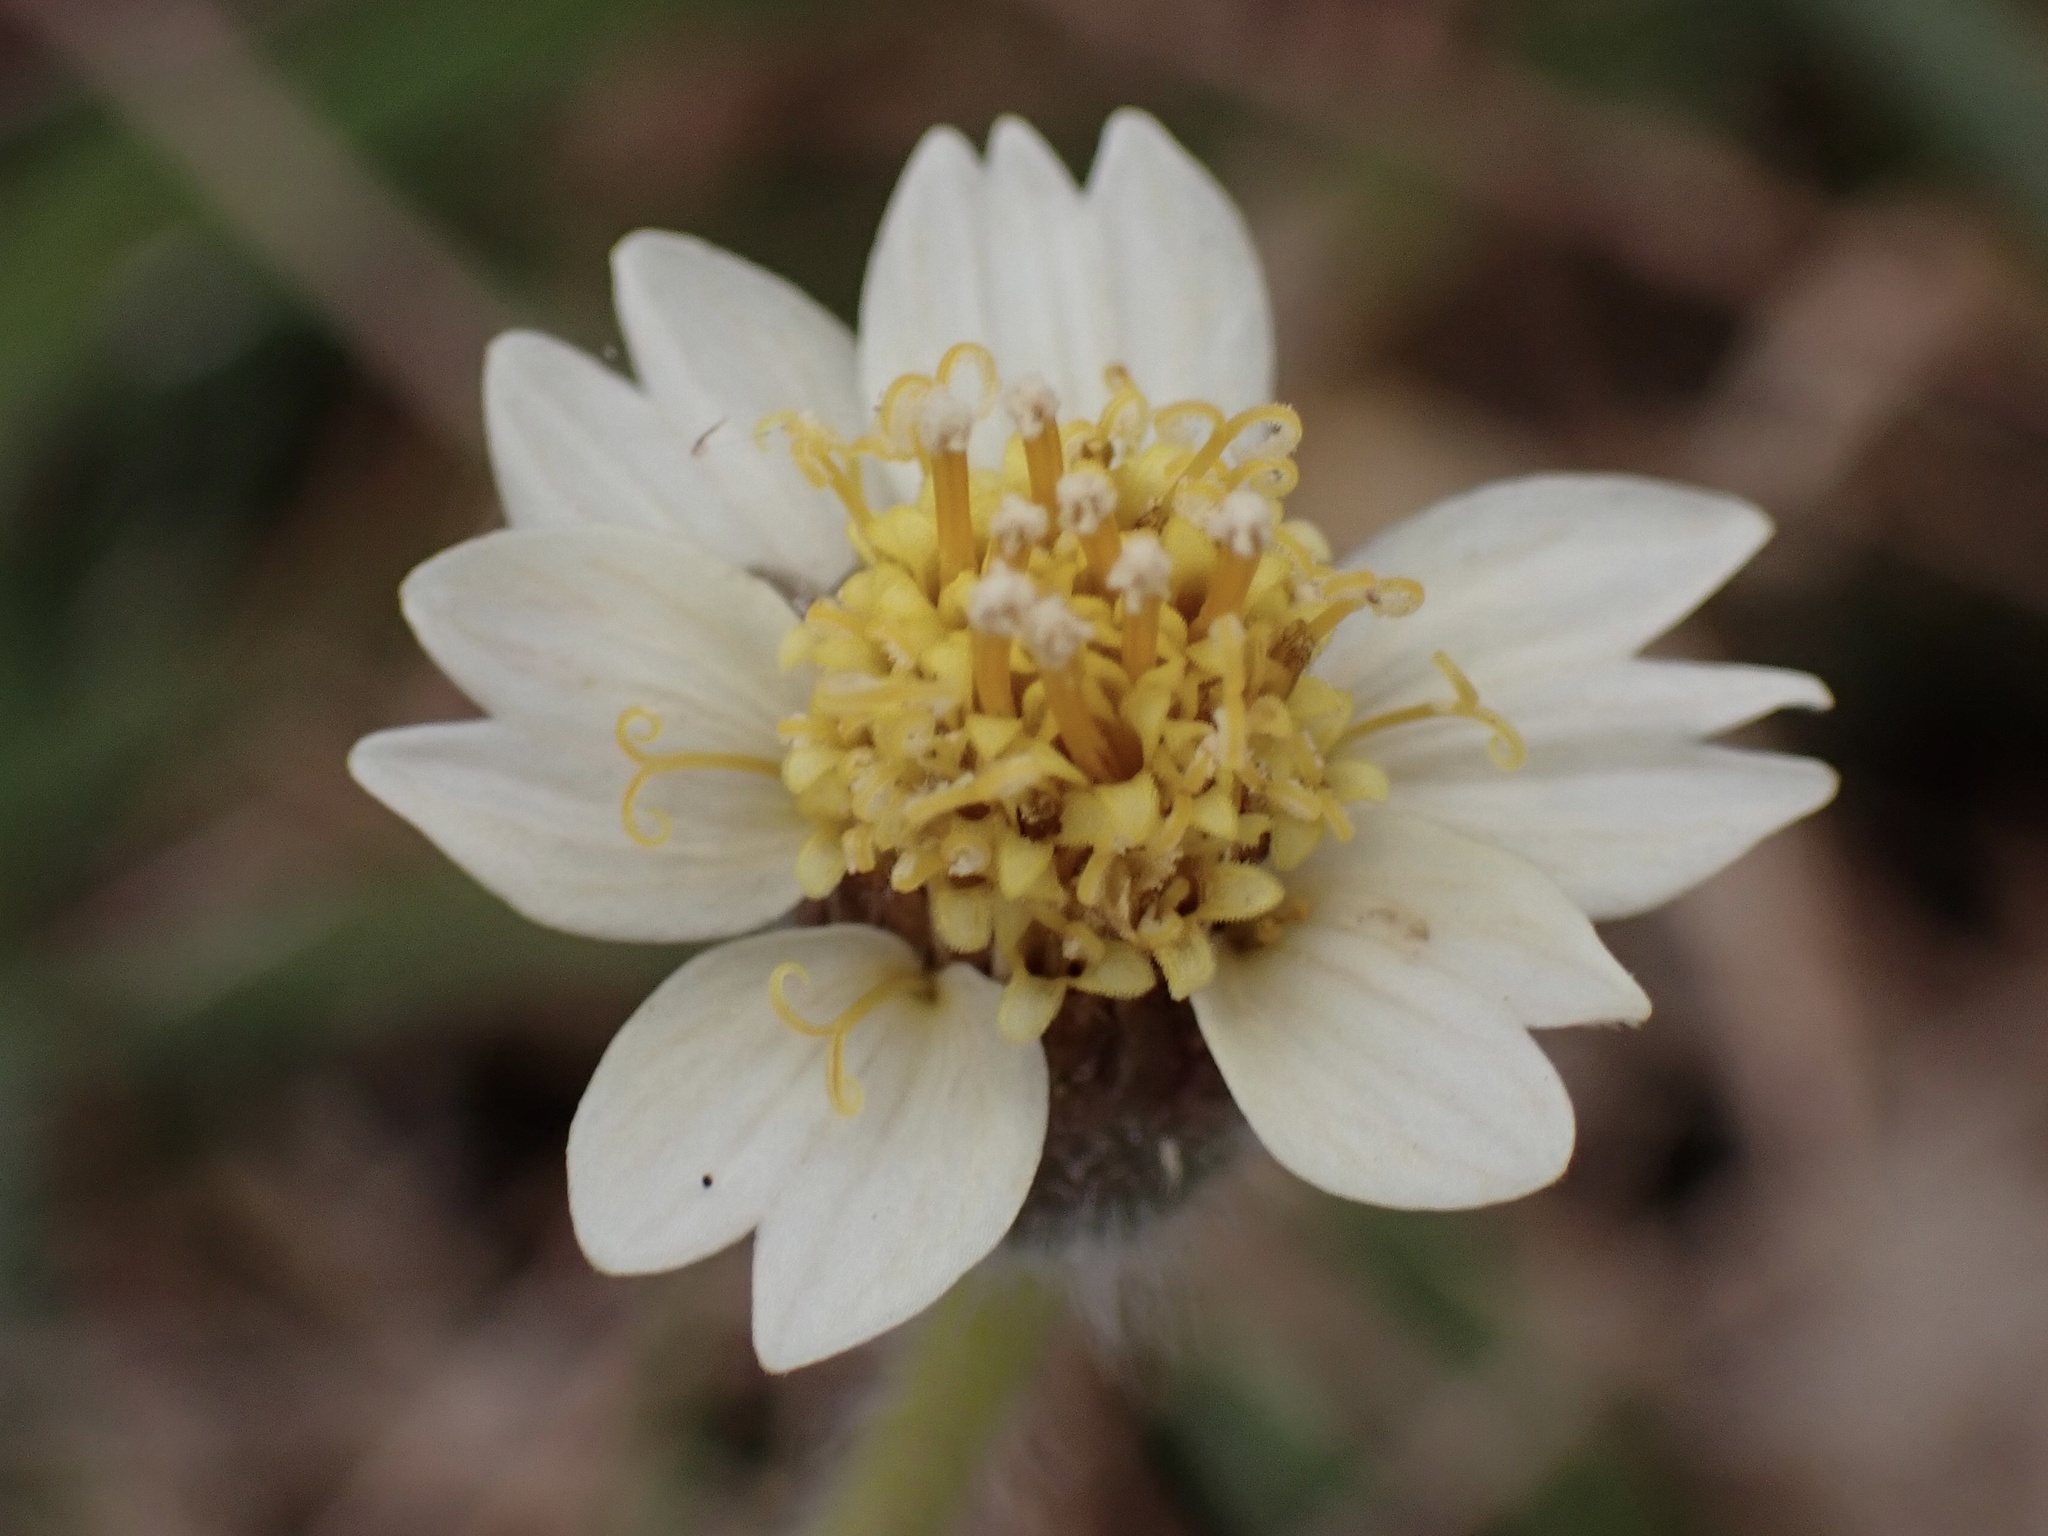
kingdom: Plantae
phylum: Tracheophyta
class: Magnoliopsida
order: Asterales
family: Asteraceae
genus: Tridax
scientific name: Tridax procumbens
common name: Coatbuttons
